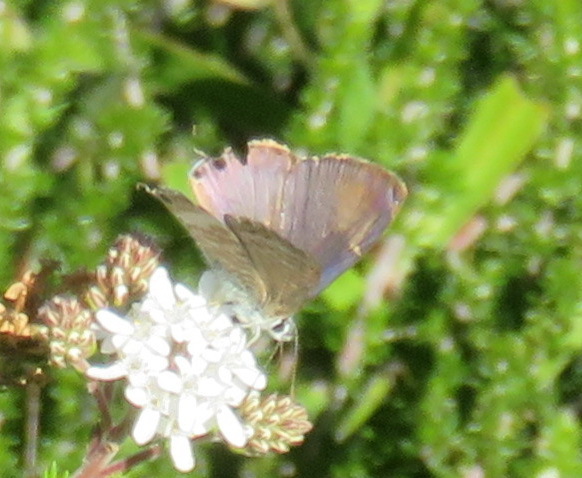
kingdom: Animalia
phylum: Arthropoda
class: Insecta
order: Lepidoptera
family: Lycaenidae
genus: Lampides
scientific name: Lampides boeticus
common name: Long-tailed blue
